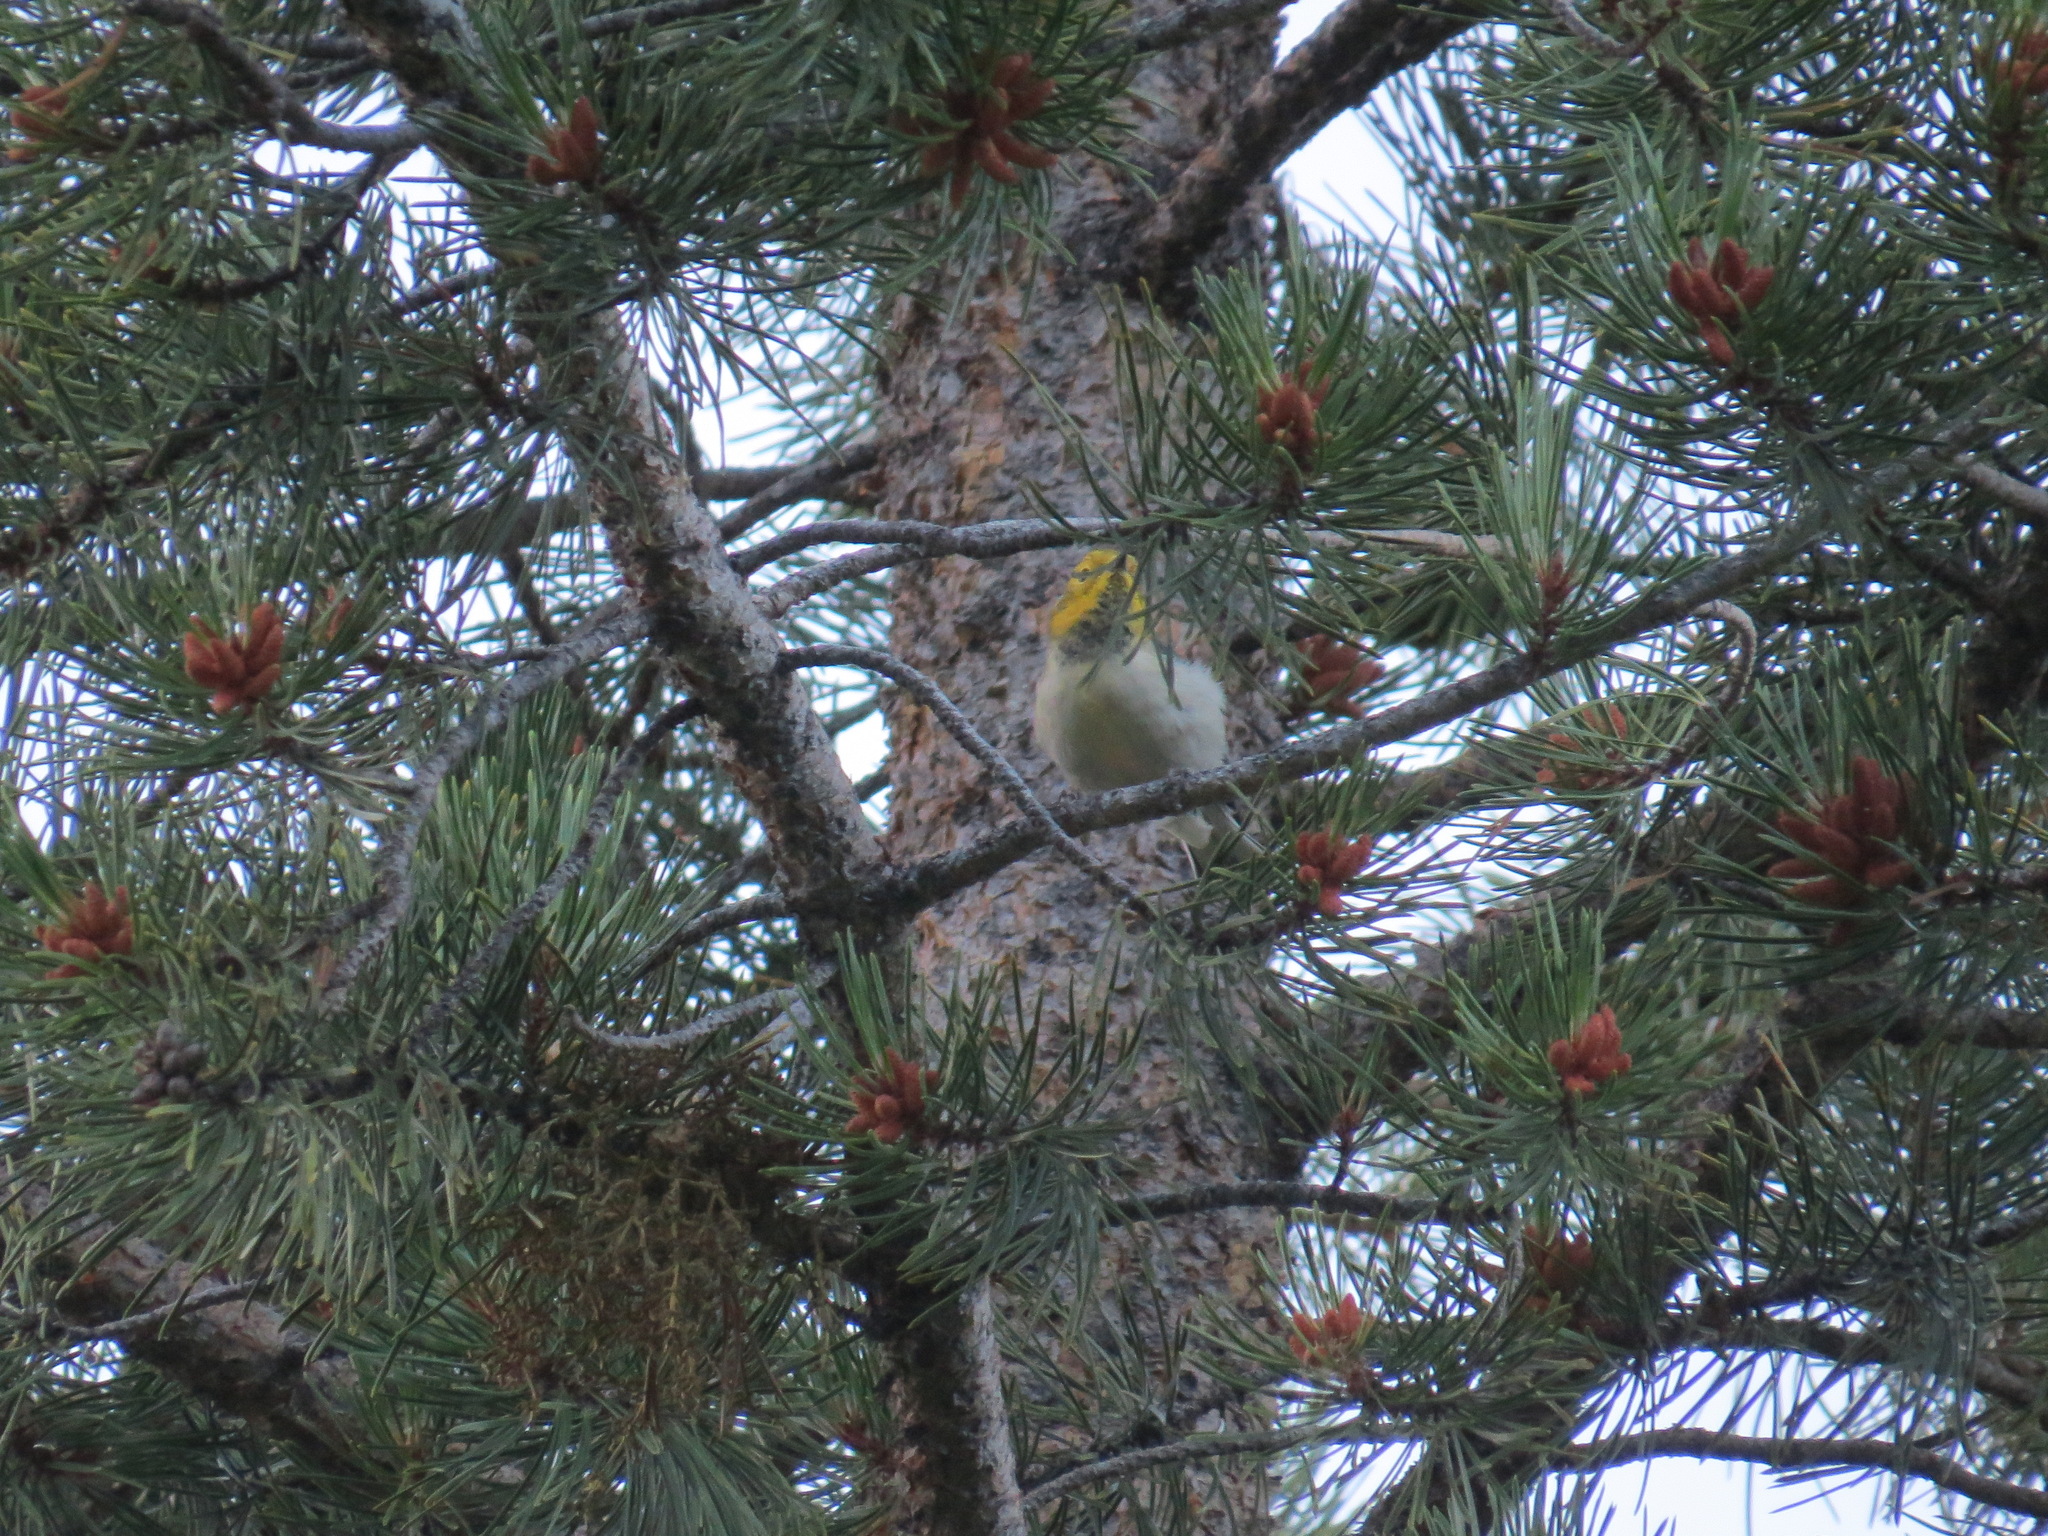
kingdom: Animalia
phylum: Chordata
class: Aves
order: Passeriformes
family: Parulidae
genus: Setophaga
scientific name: Setophaga occidentalis
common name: Hermit warbler
